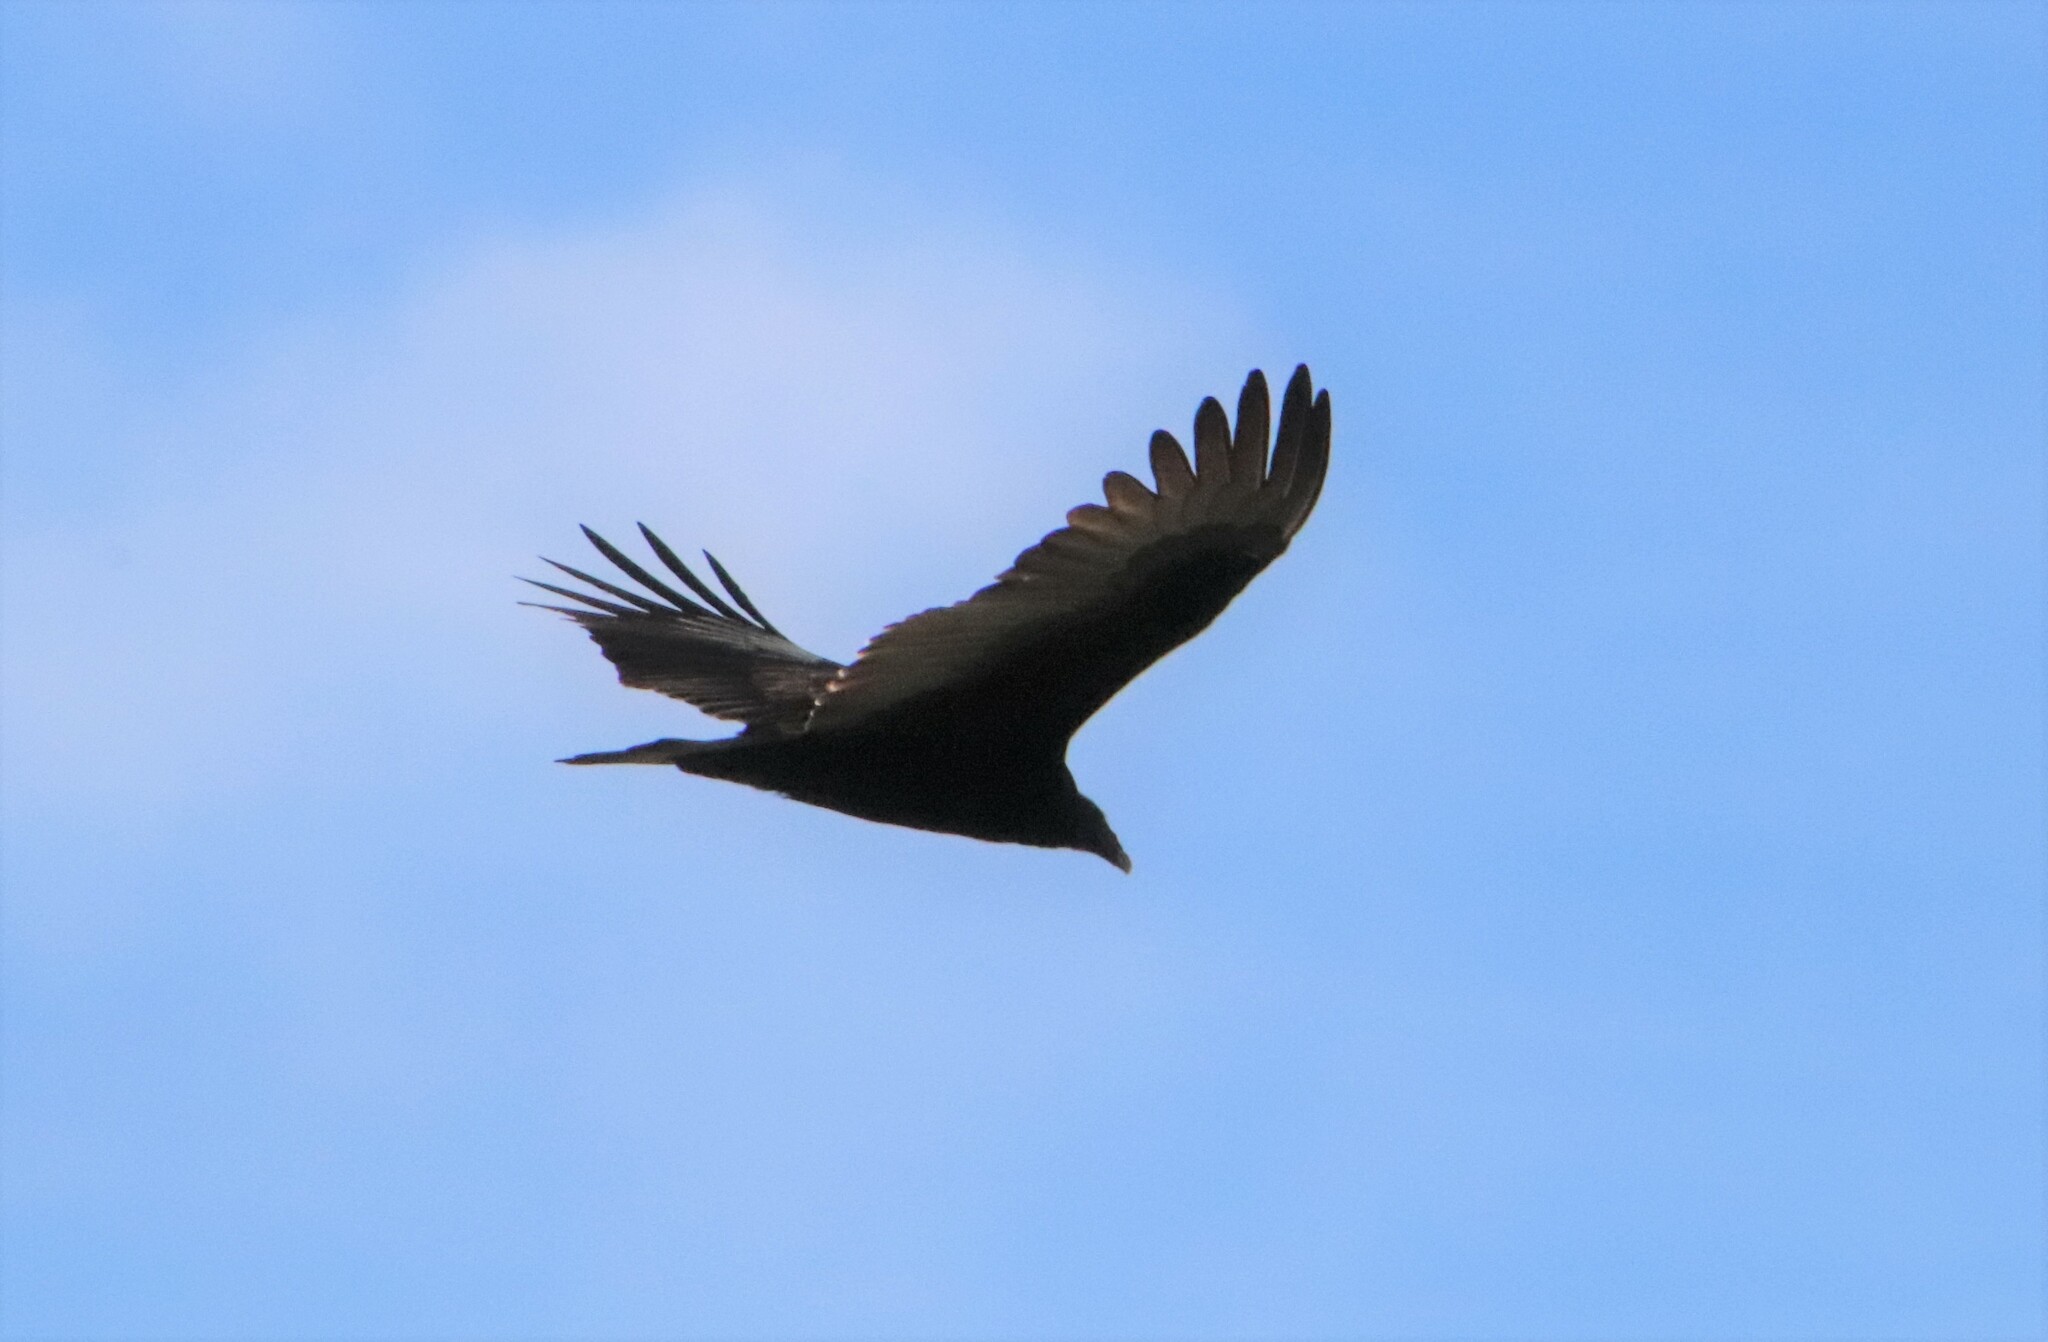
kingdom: Animalia
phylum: Chordata
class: Aves
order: Accipitriformes
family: Cathartidae
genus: Cathartes
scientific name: Cathartes aura
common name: Turkey vulture
